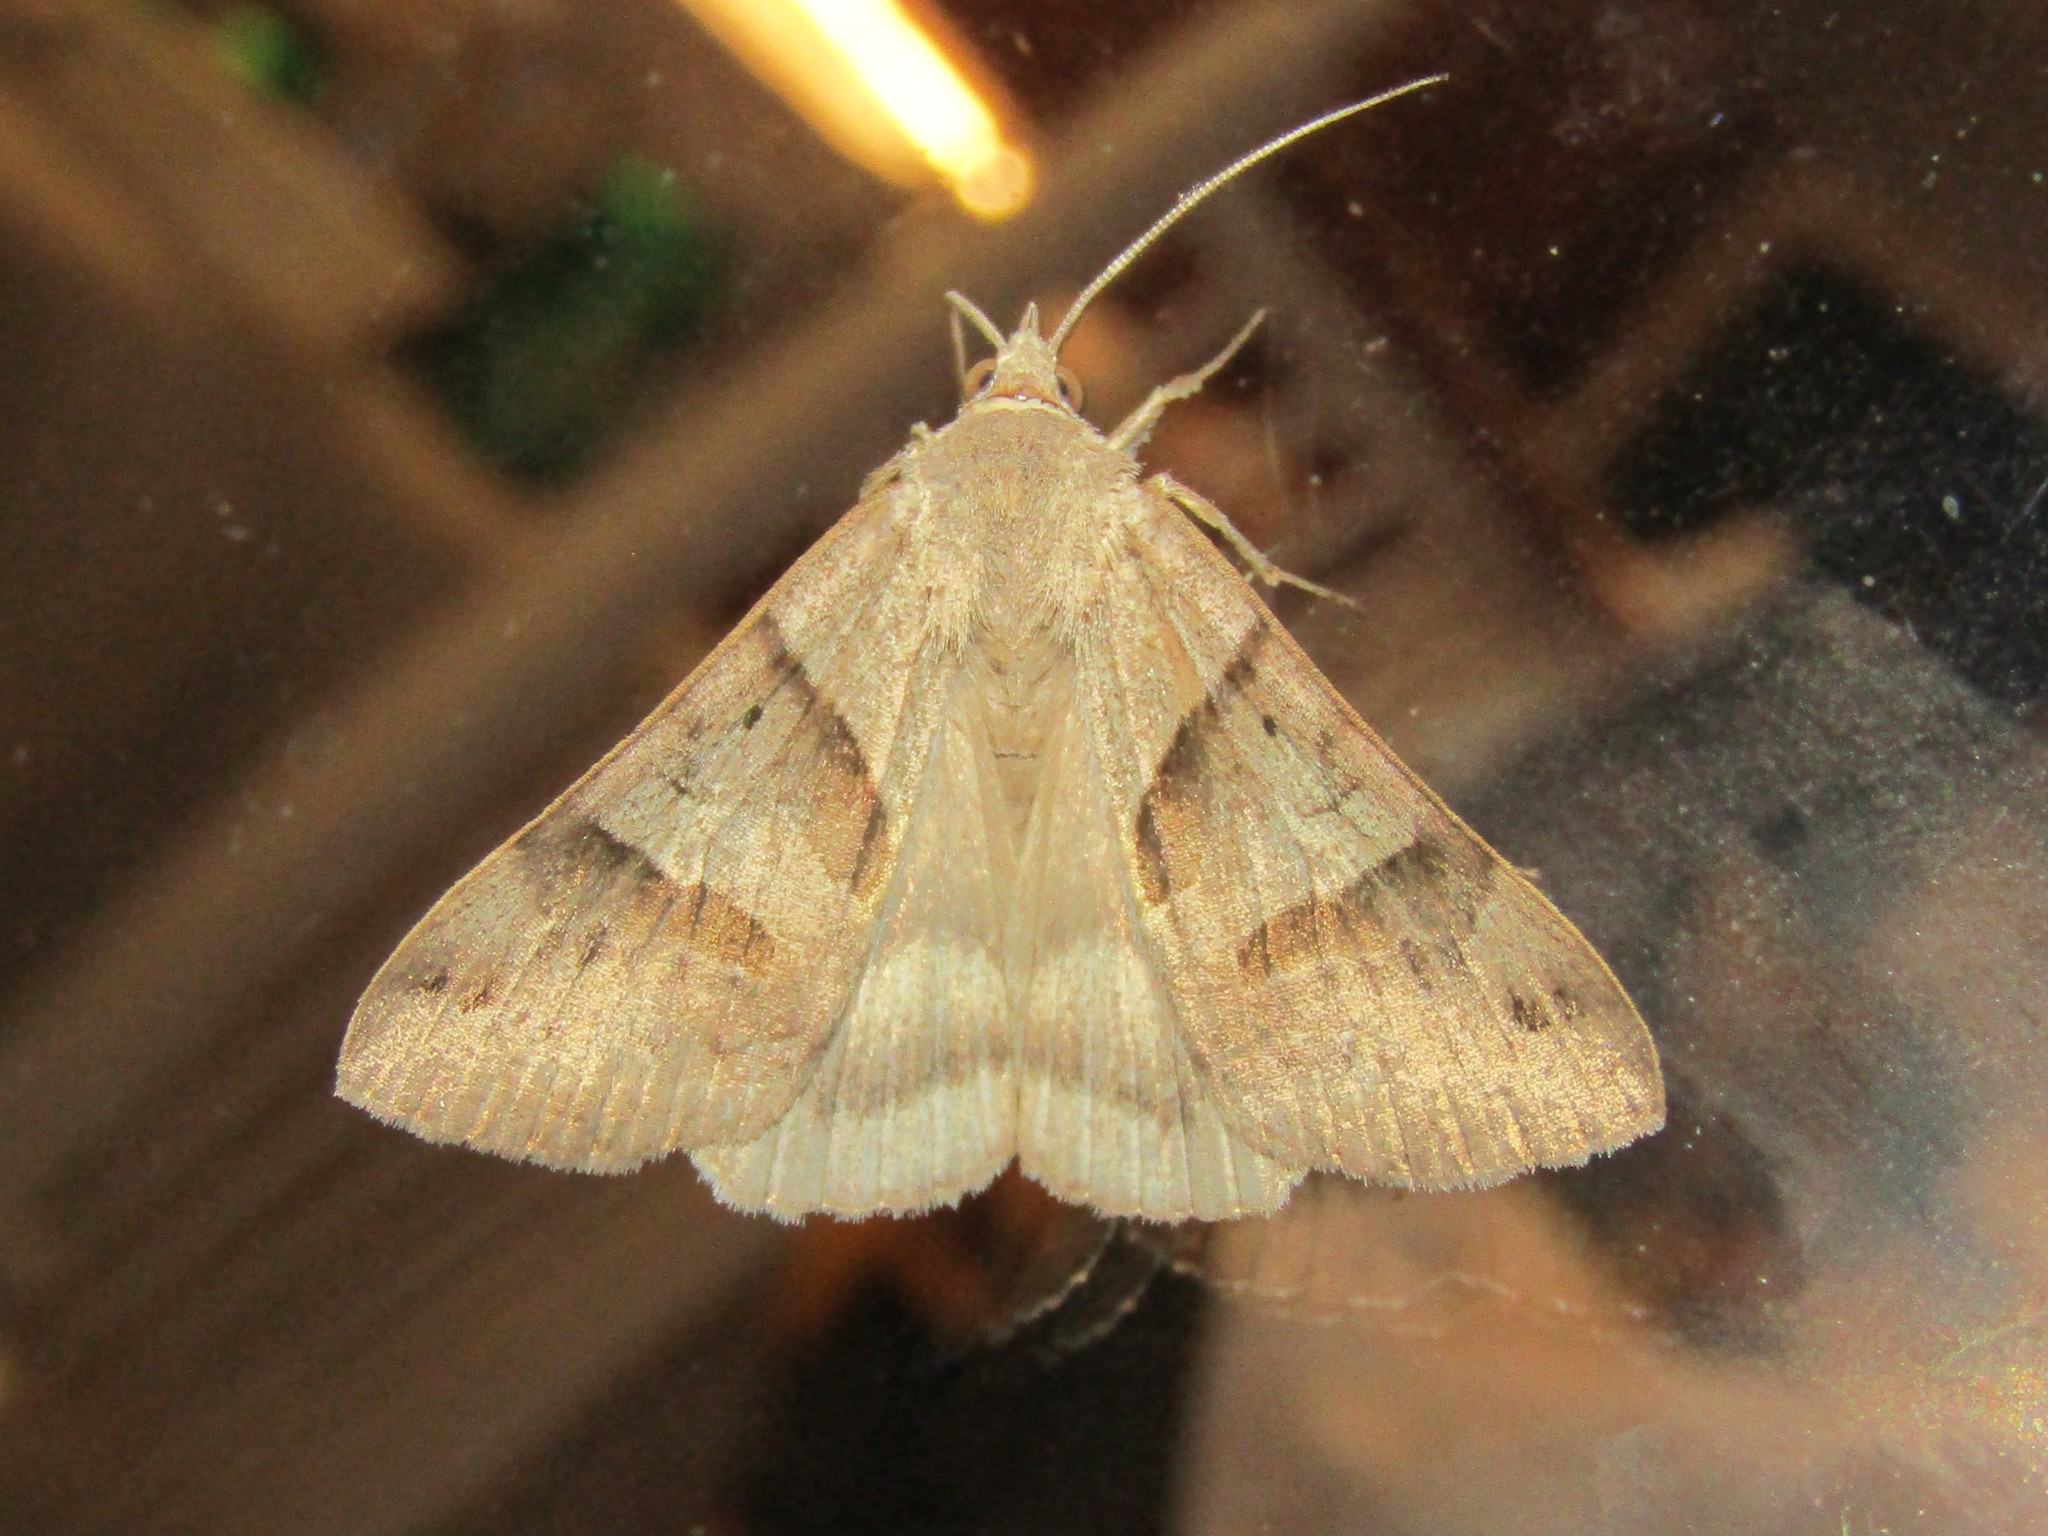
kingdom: Animalia
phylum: Arthropoda
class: Insecta
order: Lepidoptera
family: Erebidae
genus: Caenurgina
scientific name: Caenurgina erechtea
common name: Forage looper moth
